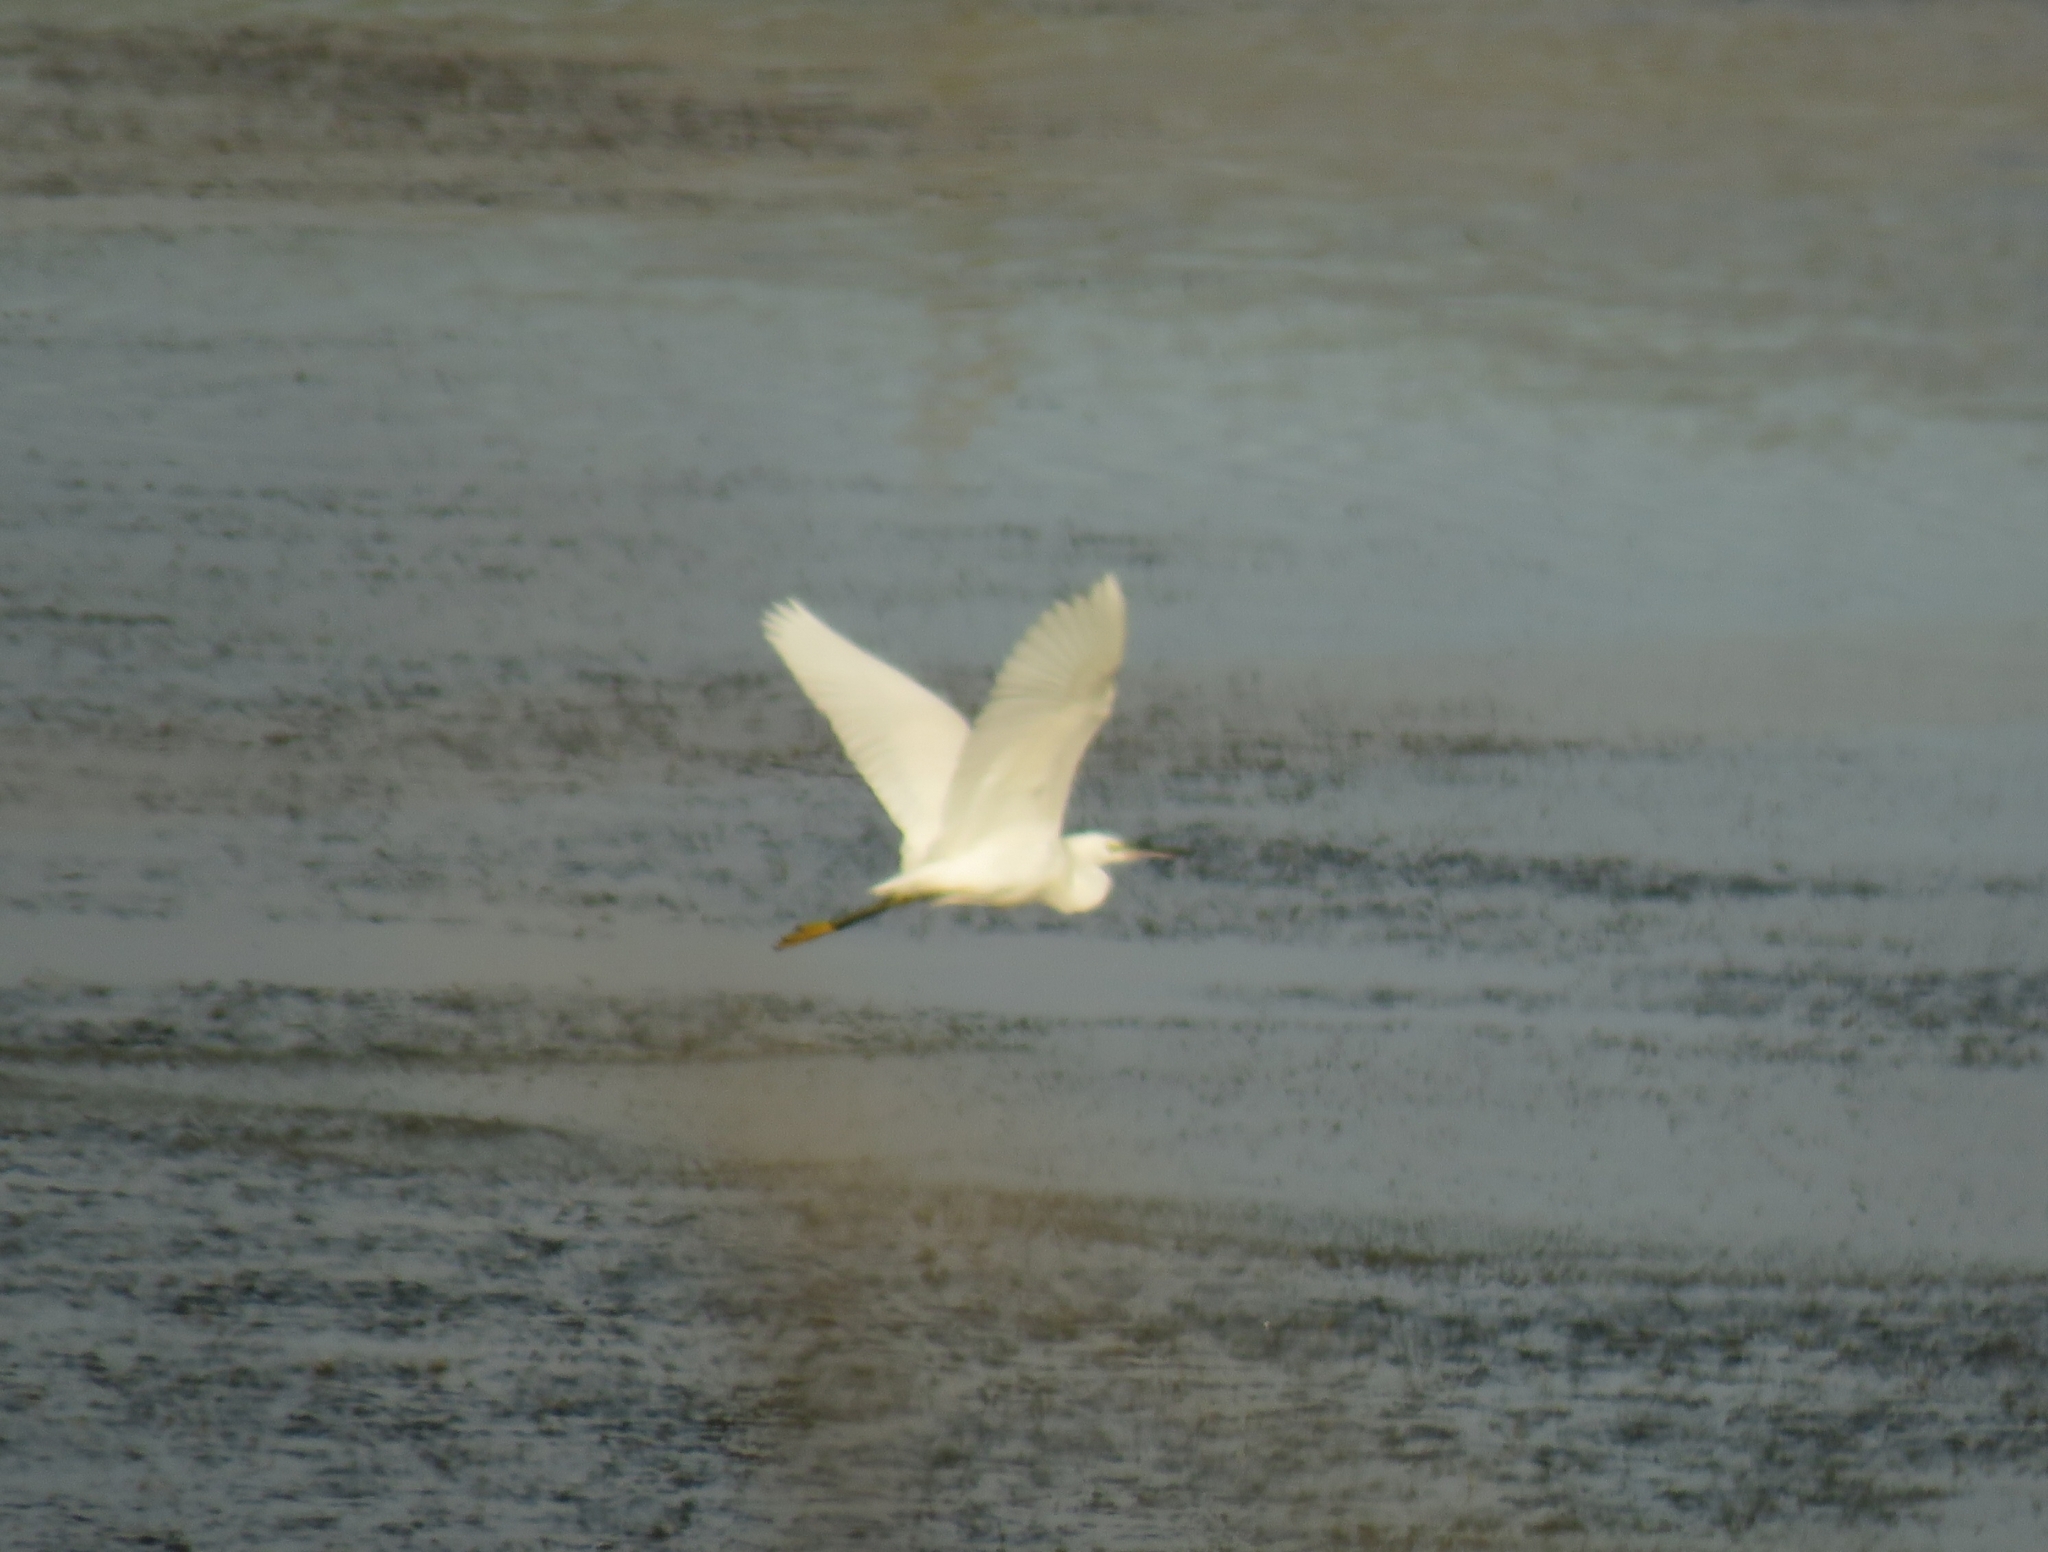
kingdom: Animalia
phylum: Chordata
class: Aves
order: Pelecaniformes
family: Ardeidae
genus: Egretta
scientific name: Egretta garzetta
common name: Little egret
